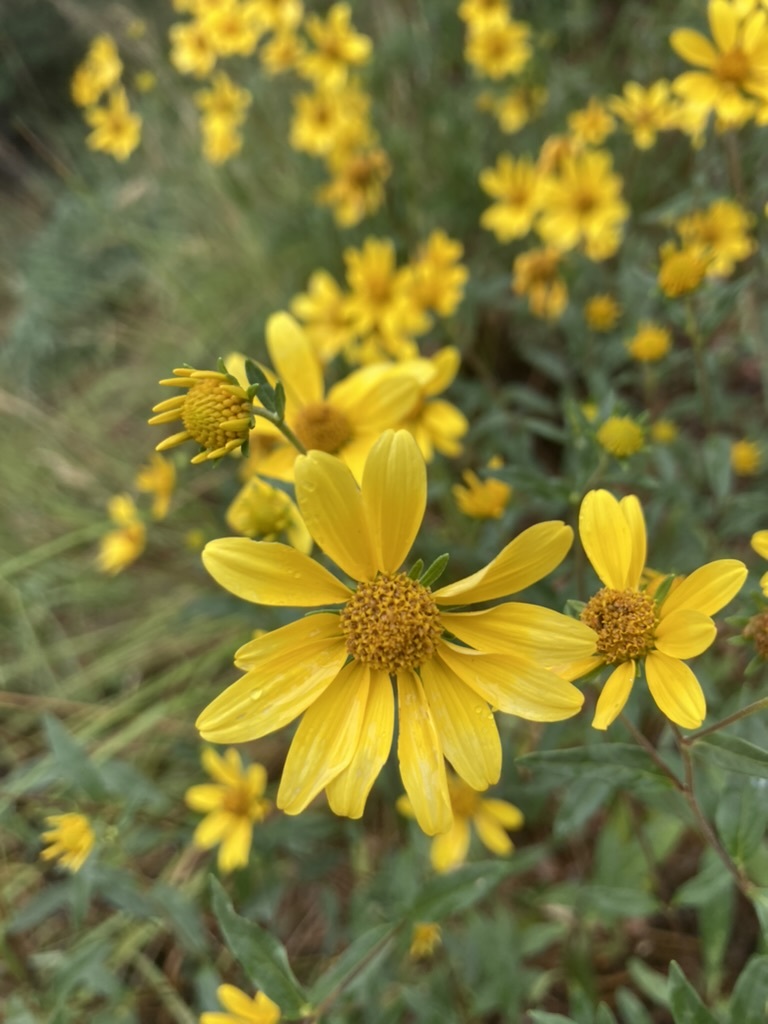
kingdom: Plantae
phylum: Tracheophyta
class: Magnoliopsida
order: Asterales
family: Asteraceae
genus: Heliomeris
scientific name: Heliomeris multiflora
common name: Showy goldeneye
